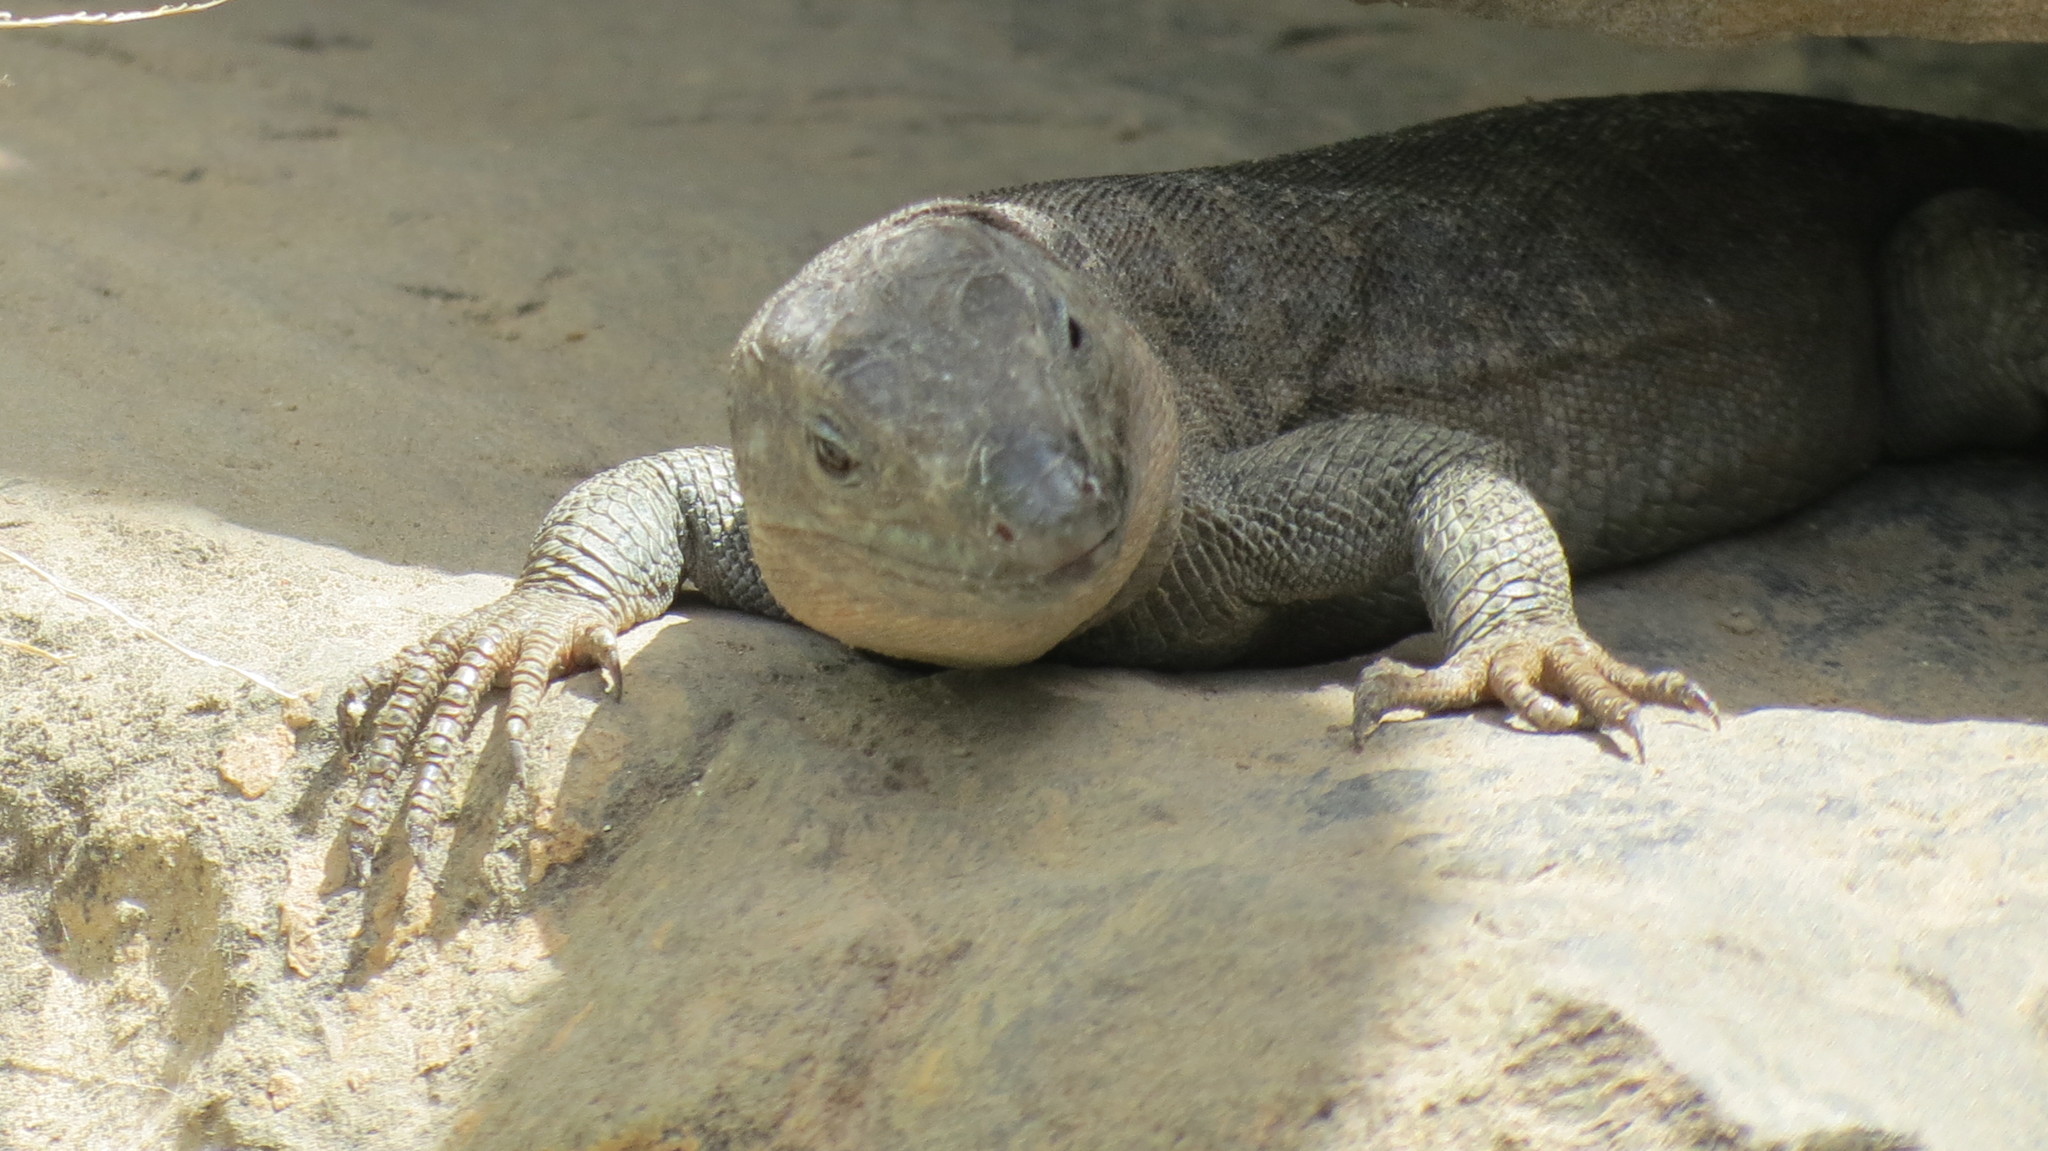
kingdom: Animalia
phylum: Chordata
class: Squamata
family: Lacertidae
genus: Gallotia
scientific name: Gallotia stehlini
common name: Gran canaria giant lizard
